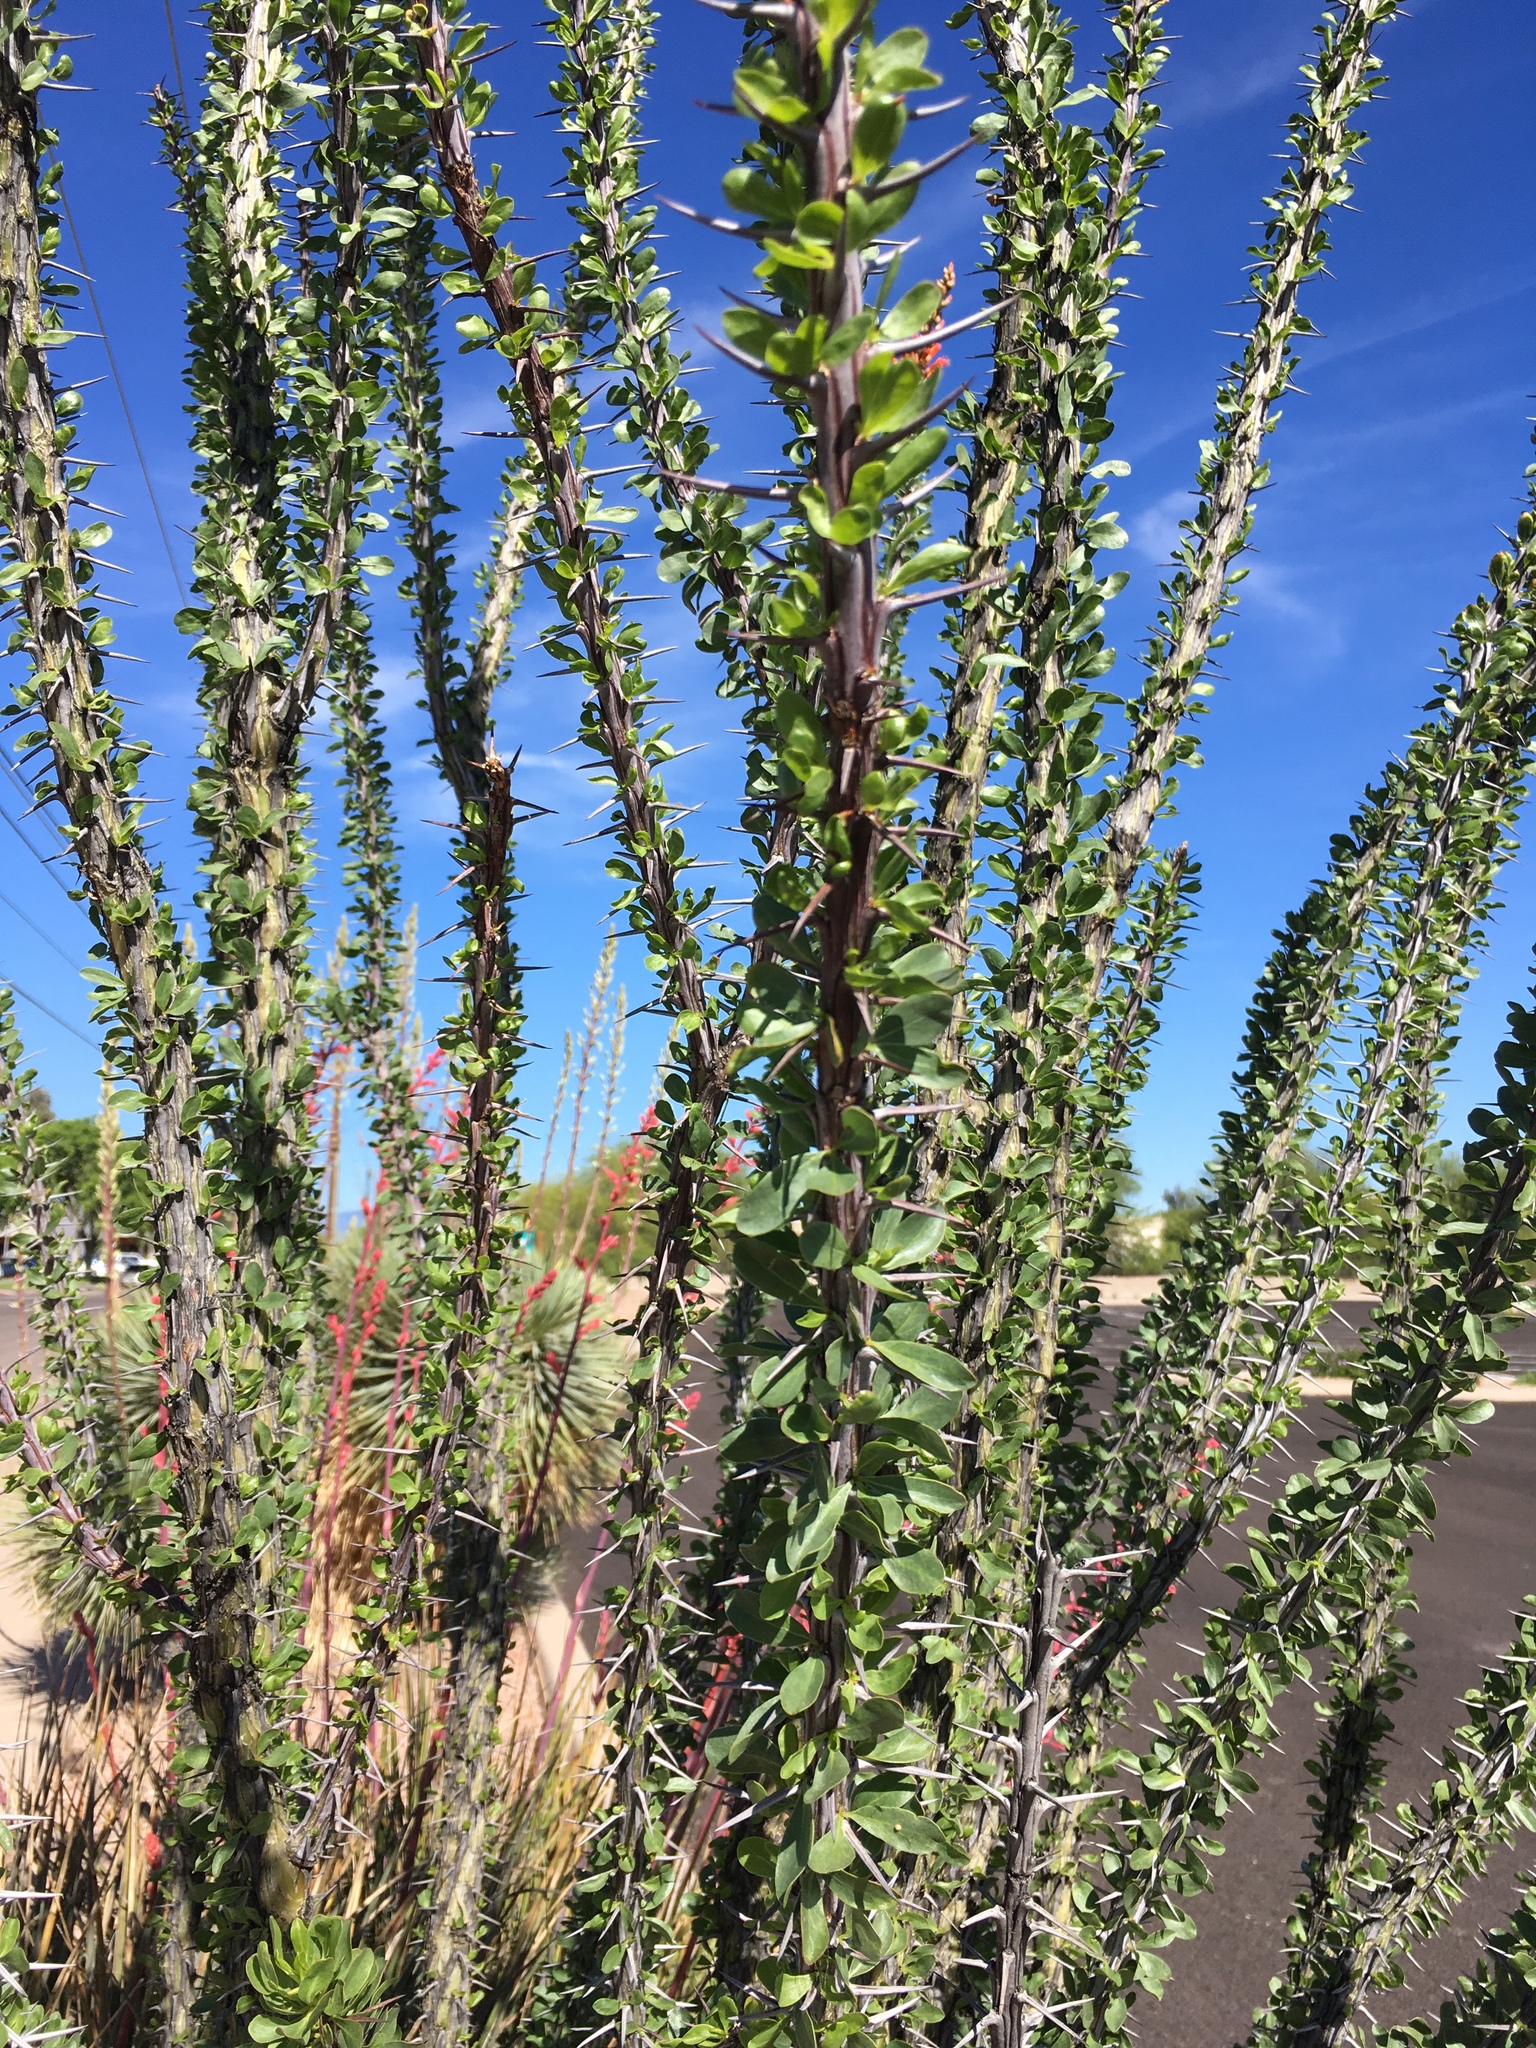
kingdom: Plantae
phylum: Tracheophyta
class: Magnoliopsida
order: Ericales
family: Fouquieriaceae
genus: Fouquieria
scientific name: Fouquieria splendens
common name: Vine-cactus
